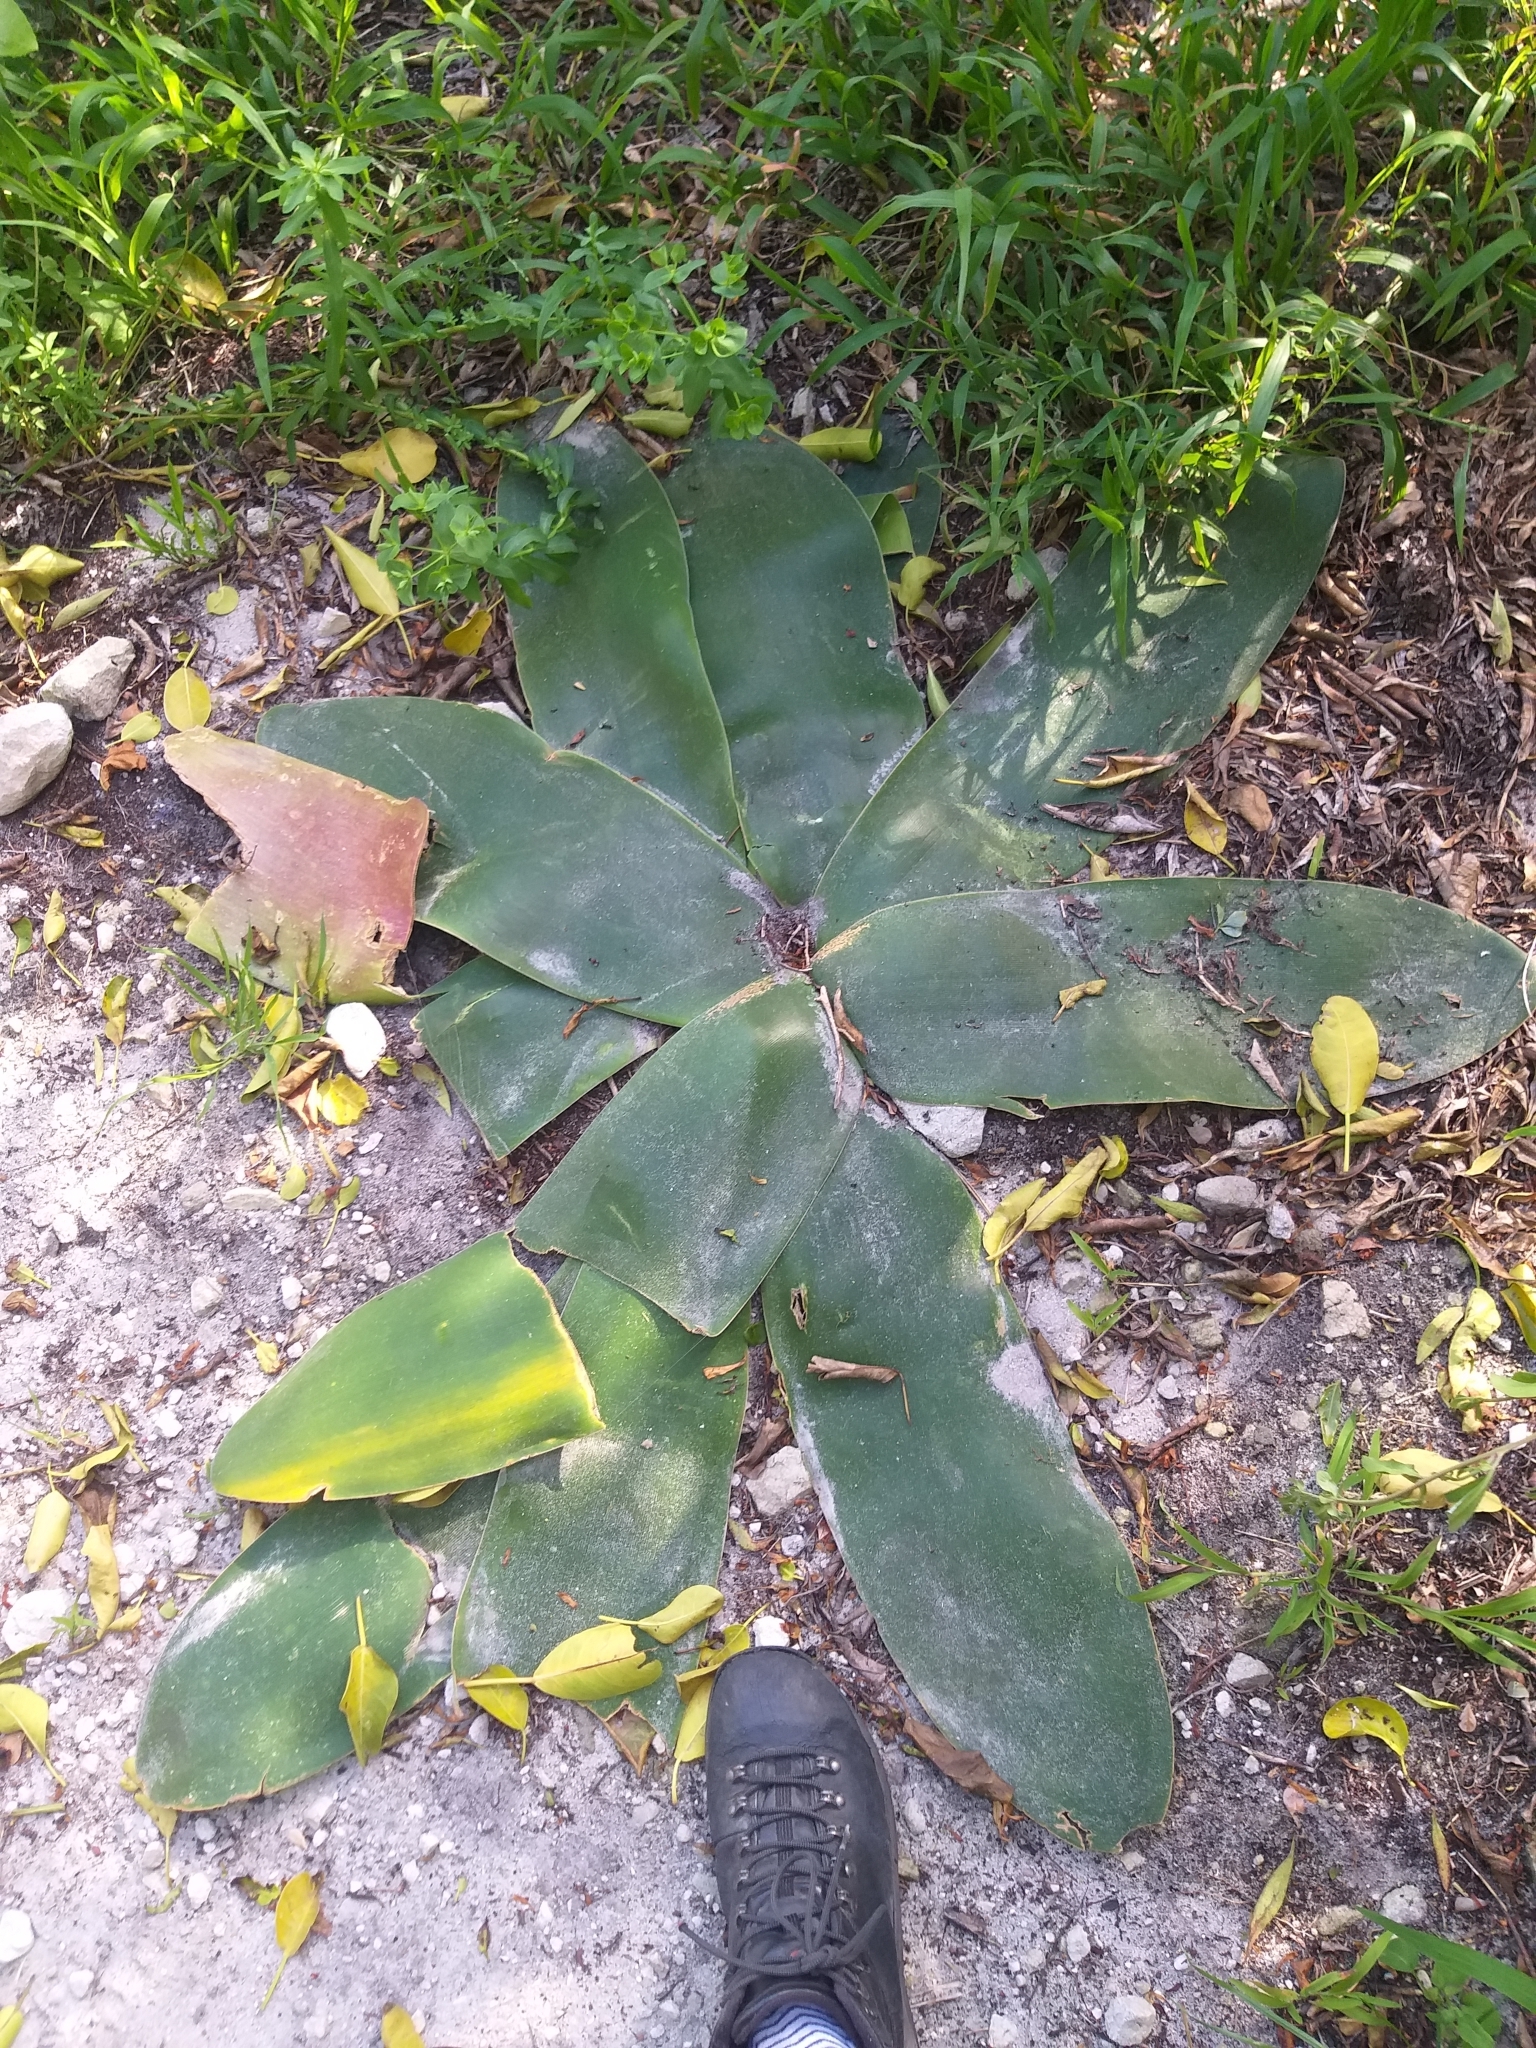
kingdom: Plantae
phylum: Tracheophyta
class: Liliopsida
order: Asparagales
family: Amaryllidaceae
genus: Brunsvigia
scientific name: Brunsvigia orientalis
